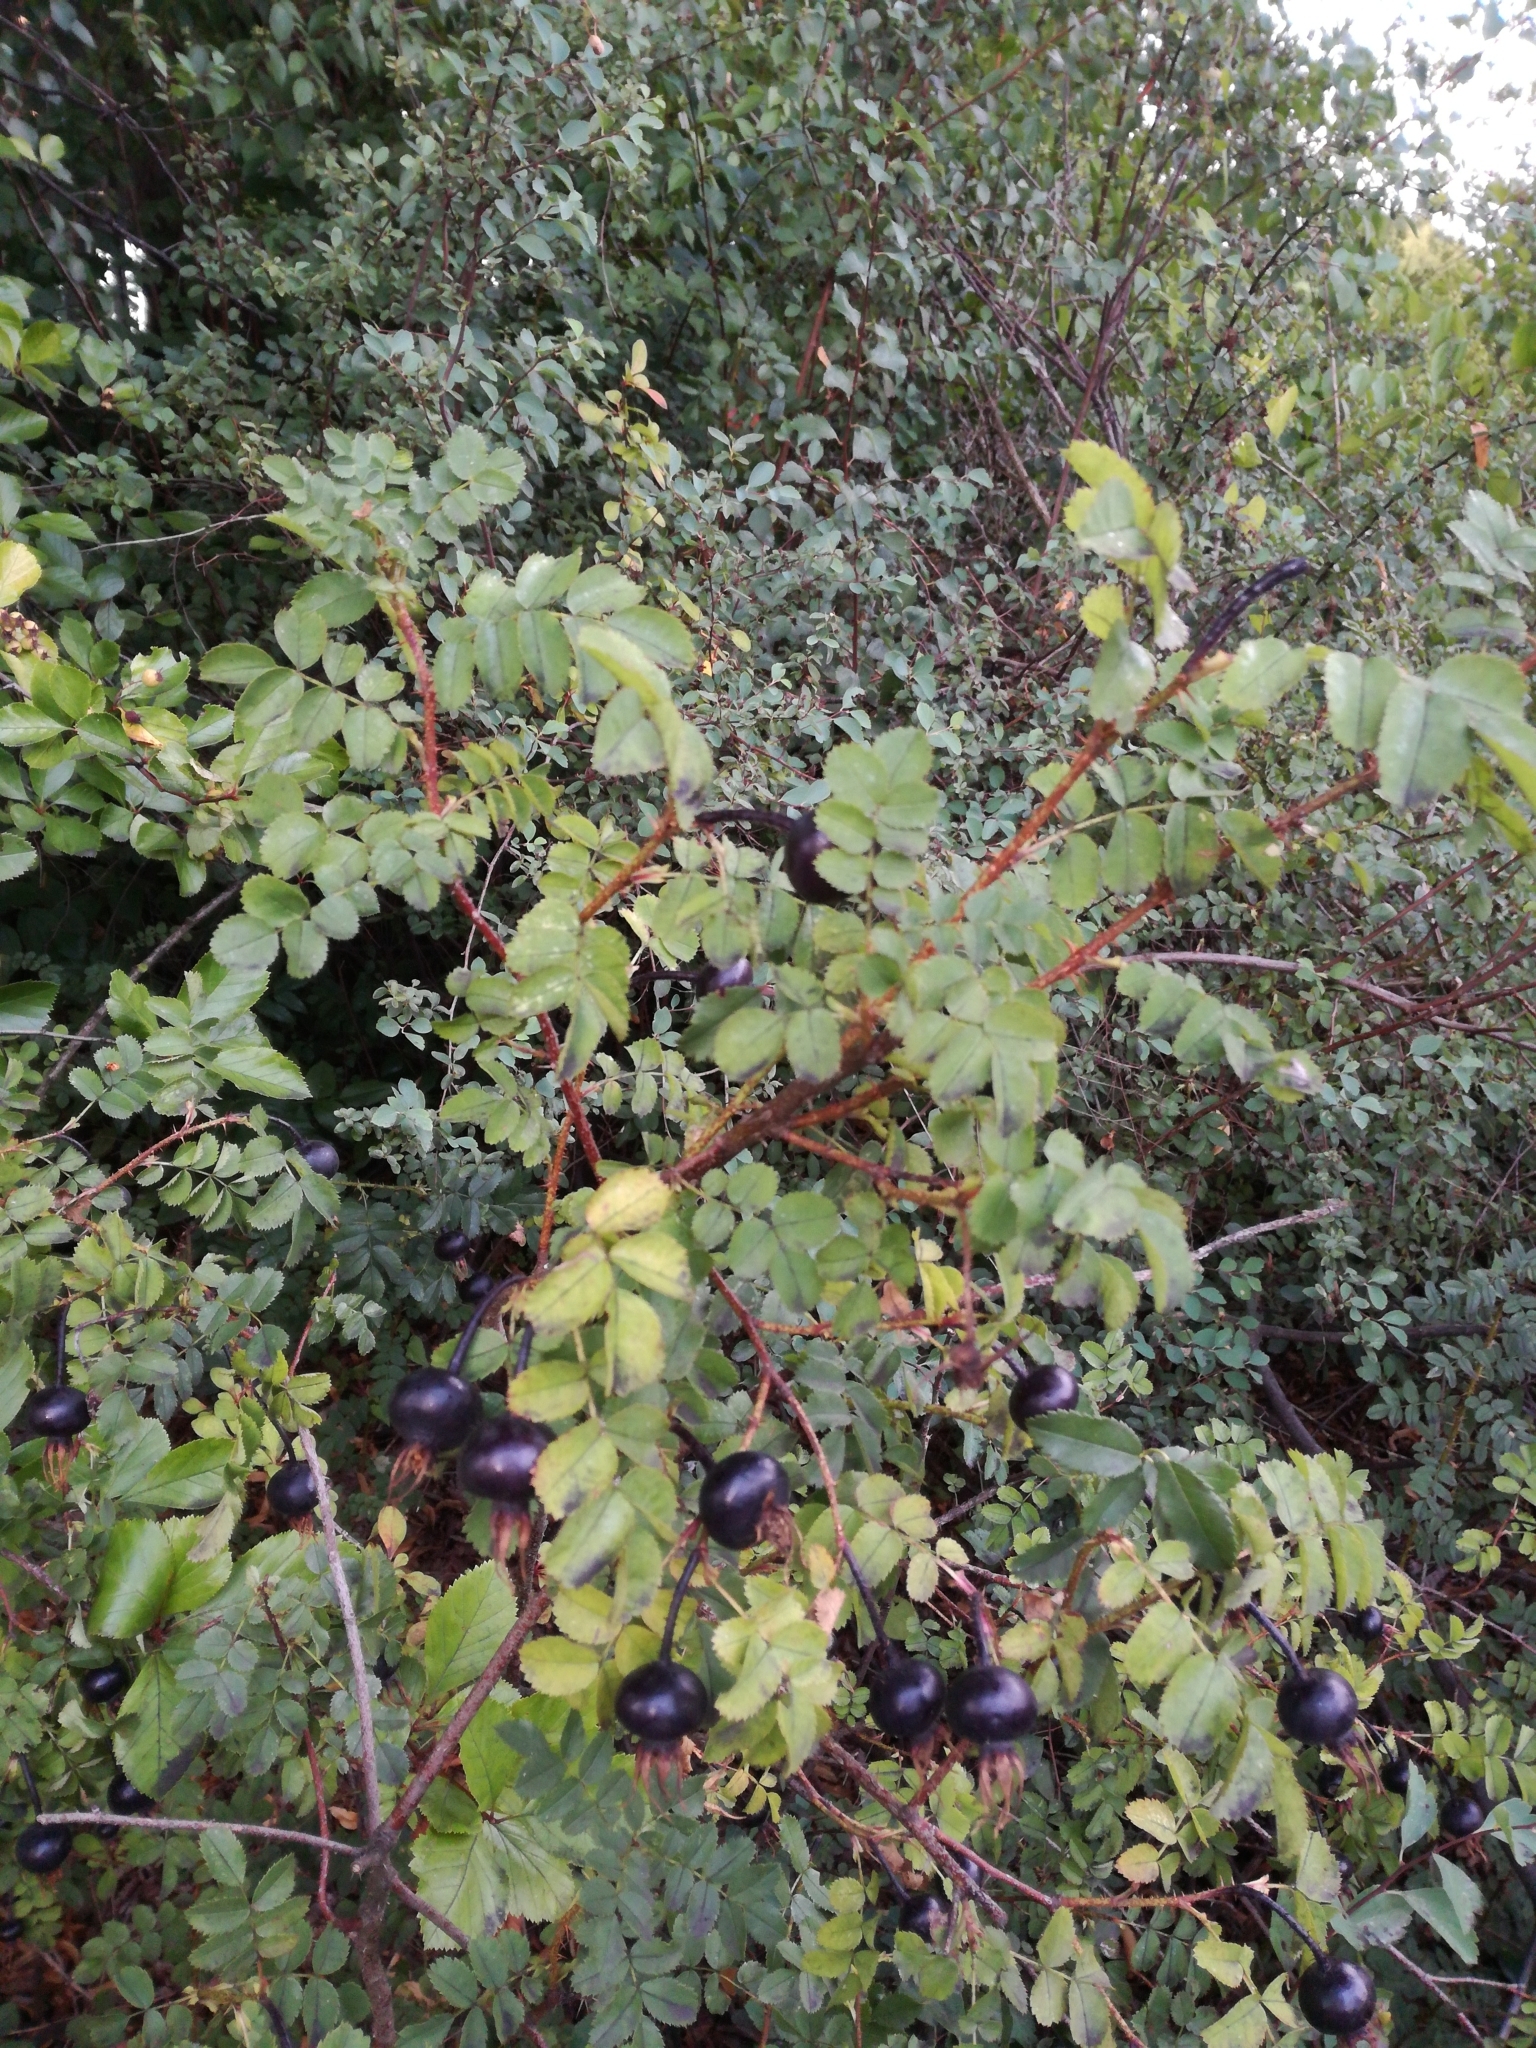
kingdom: Plantae
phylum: Tracheophyta
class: Magnoliopsida
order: Rosales
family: Rosaceae
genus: Rosa
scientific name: Rosa spinosissima
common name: Burnet rose
